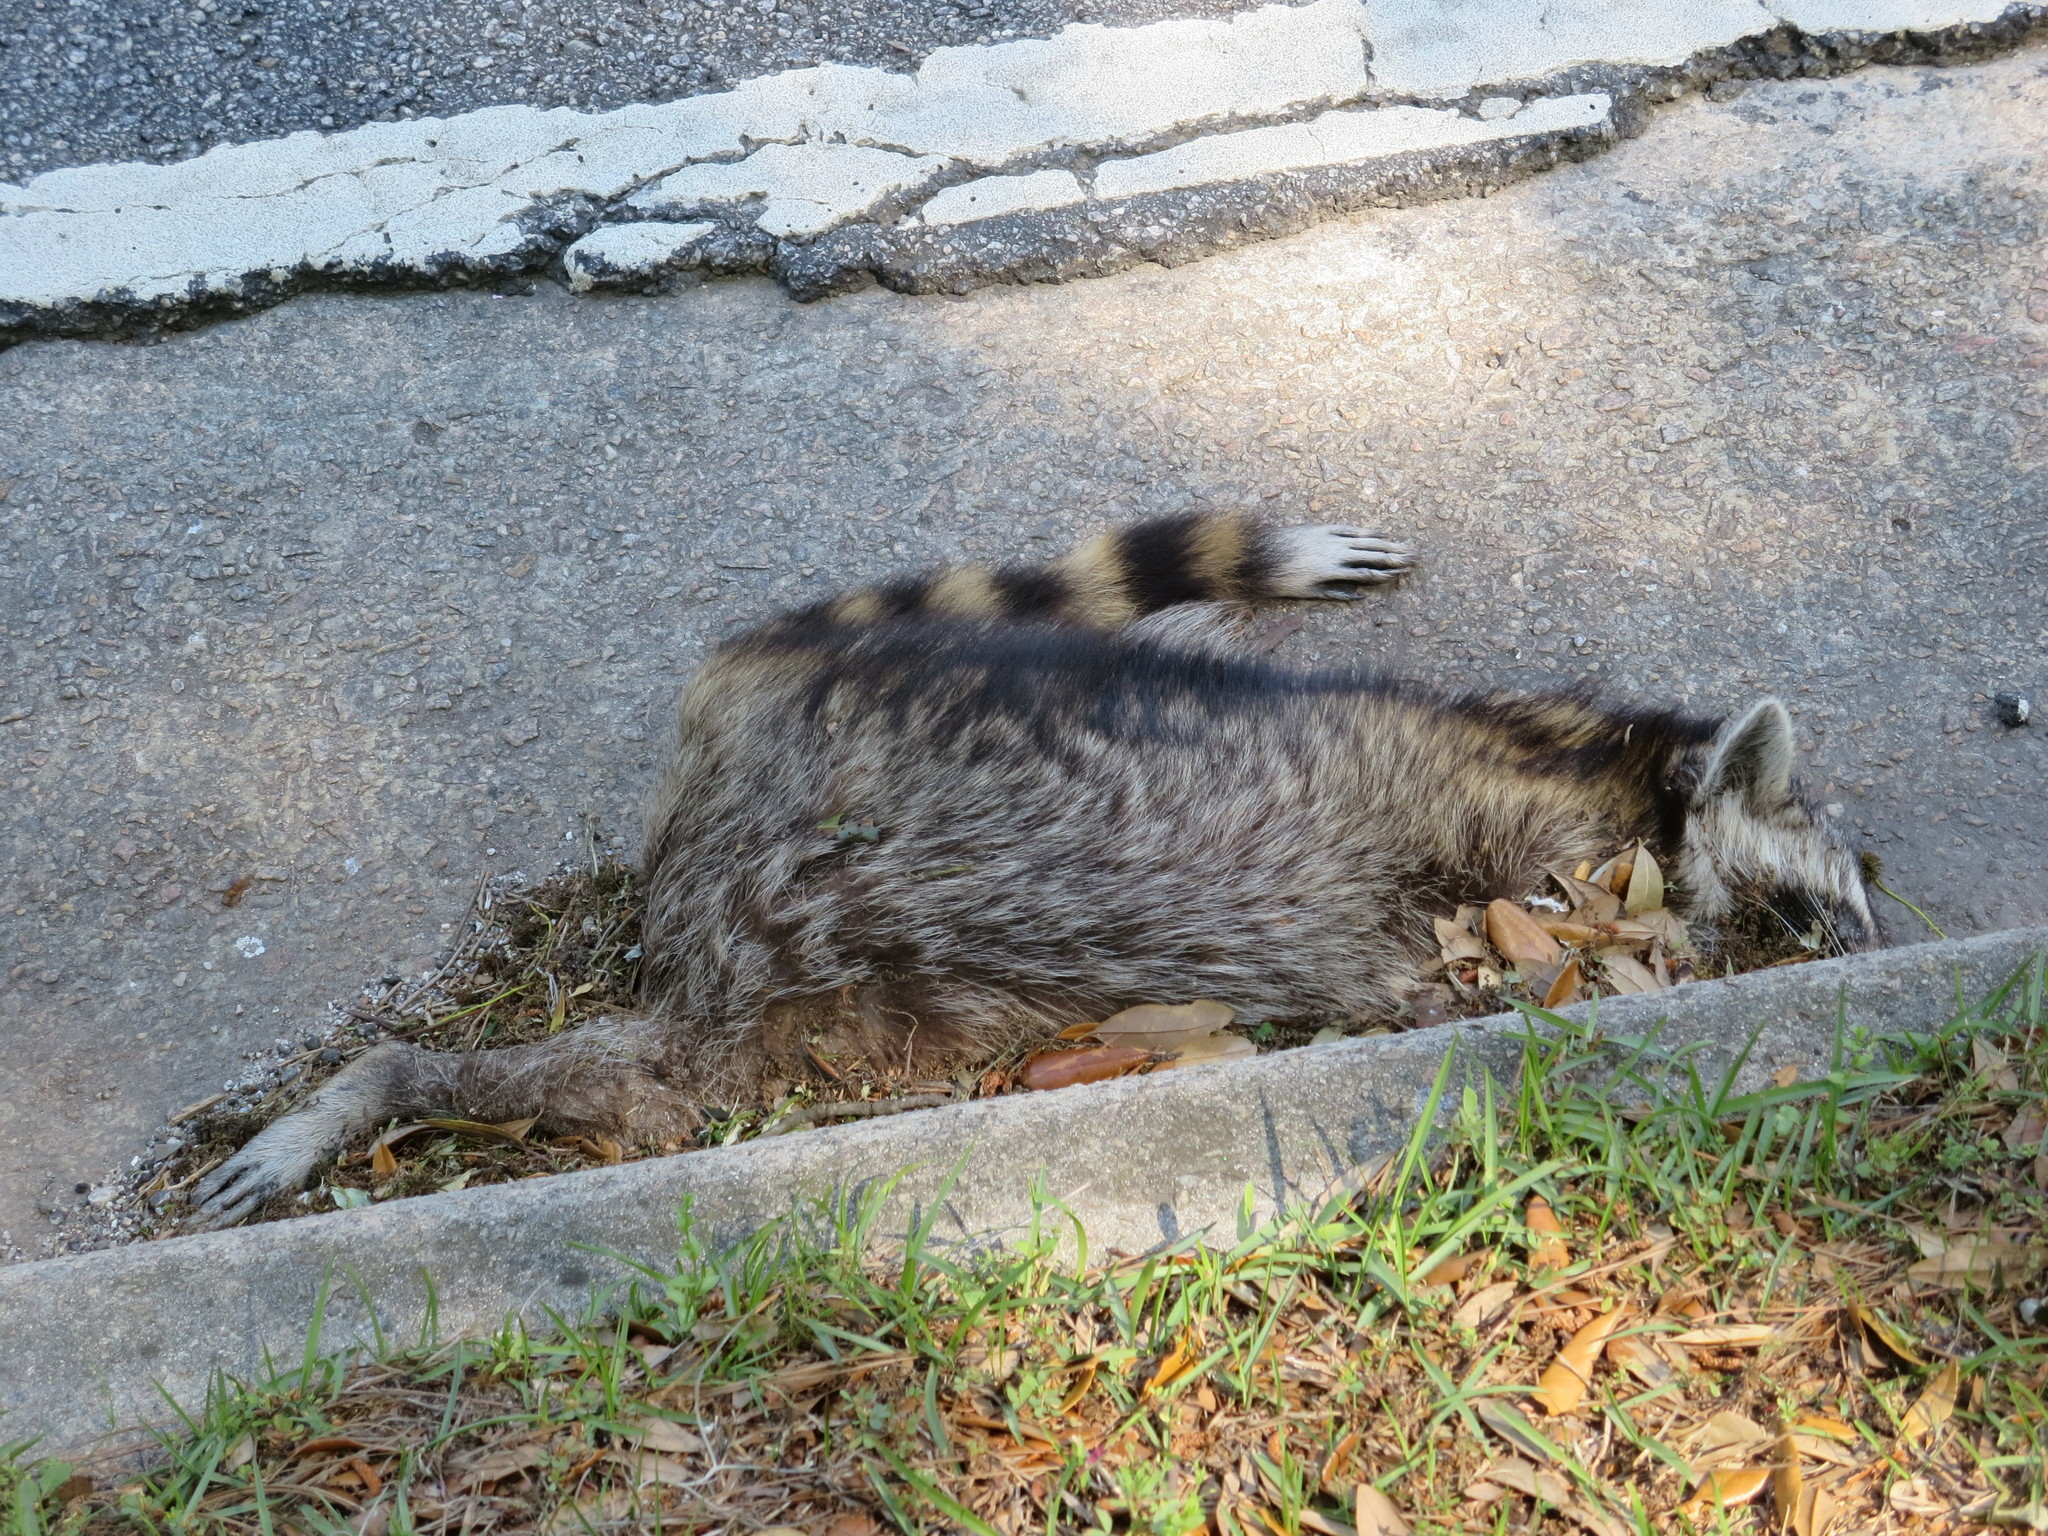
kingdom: Animalia
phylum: Chordata
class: Mammalia
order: Carnivora
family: Procyonidae
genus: Procyon
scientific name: Procyon lotor
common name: Raccoon
